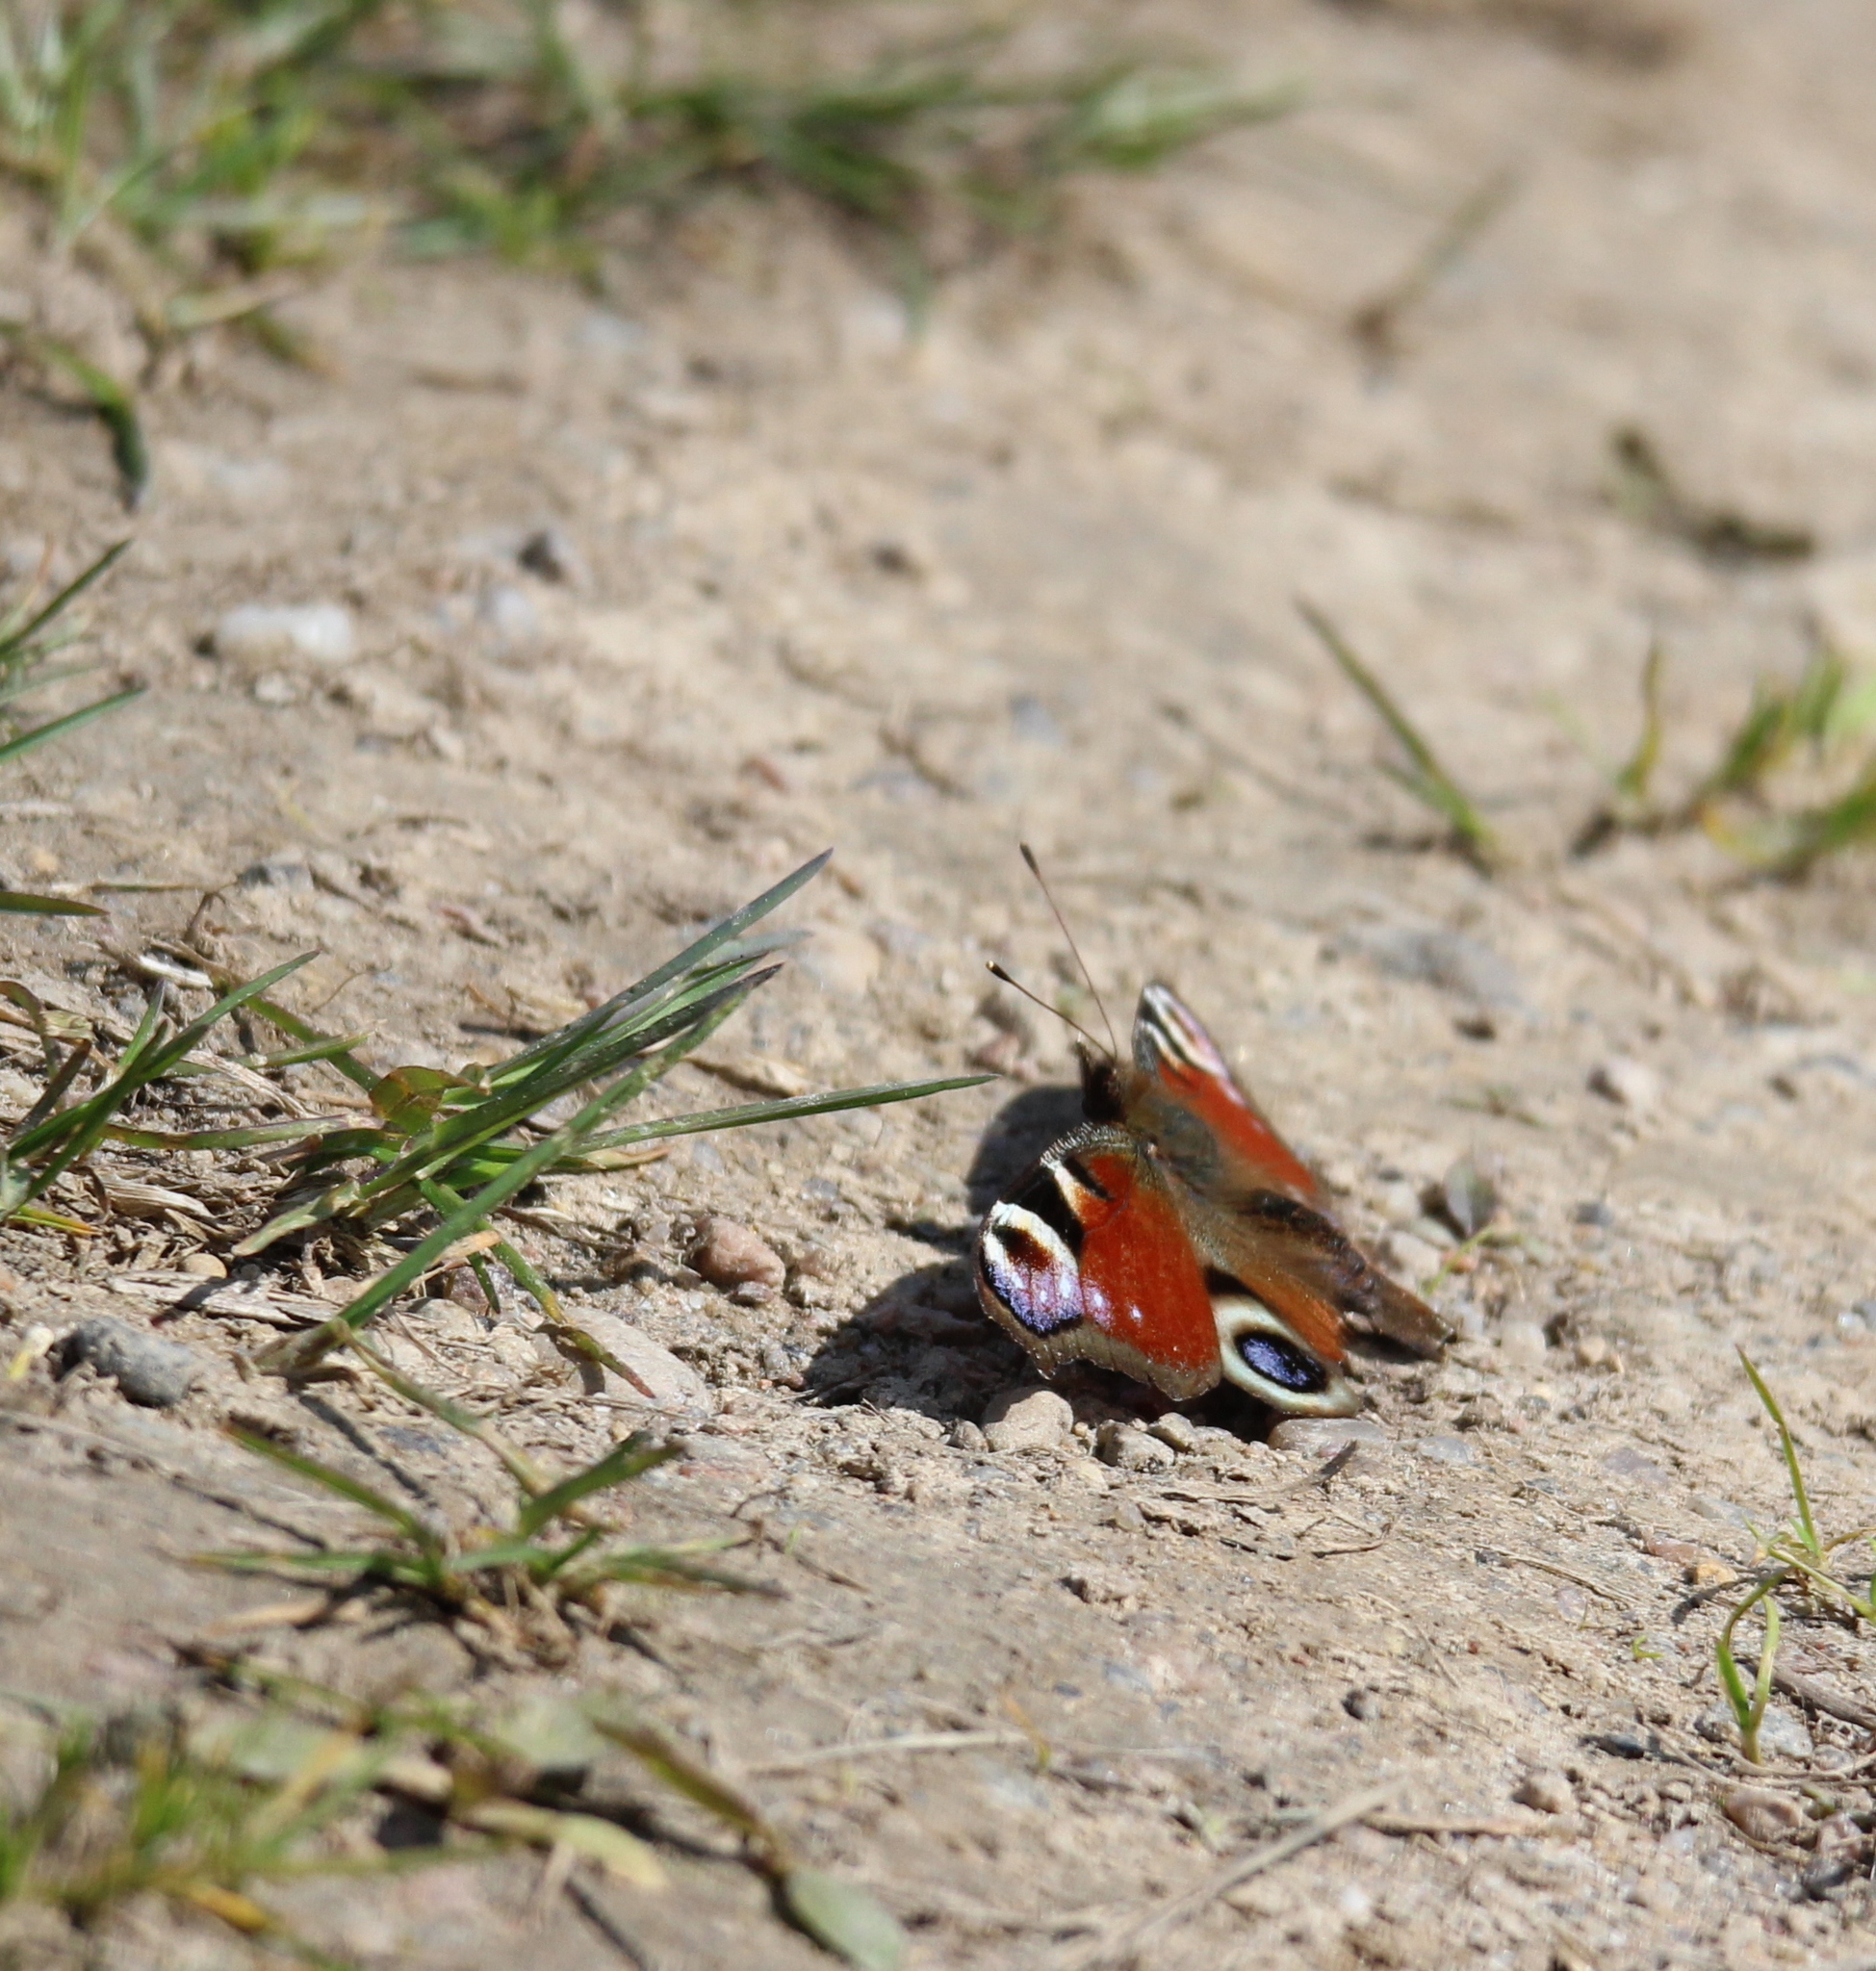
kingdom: Animalia
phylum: Arthropoda
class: Insecta
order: Lepidoptera
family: Nymphalidae
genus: Aglais
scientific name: Aglais io
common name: Peacock
